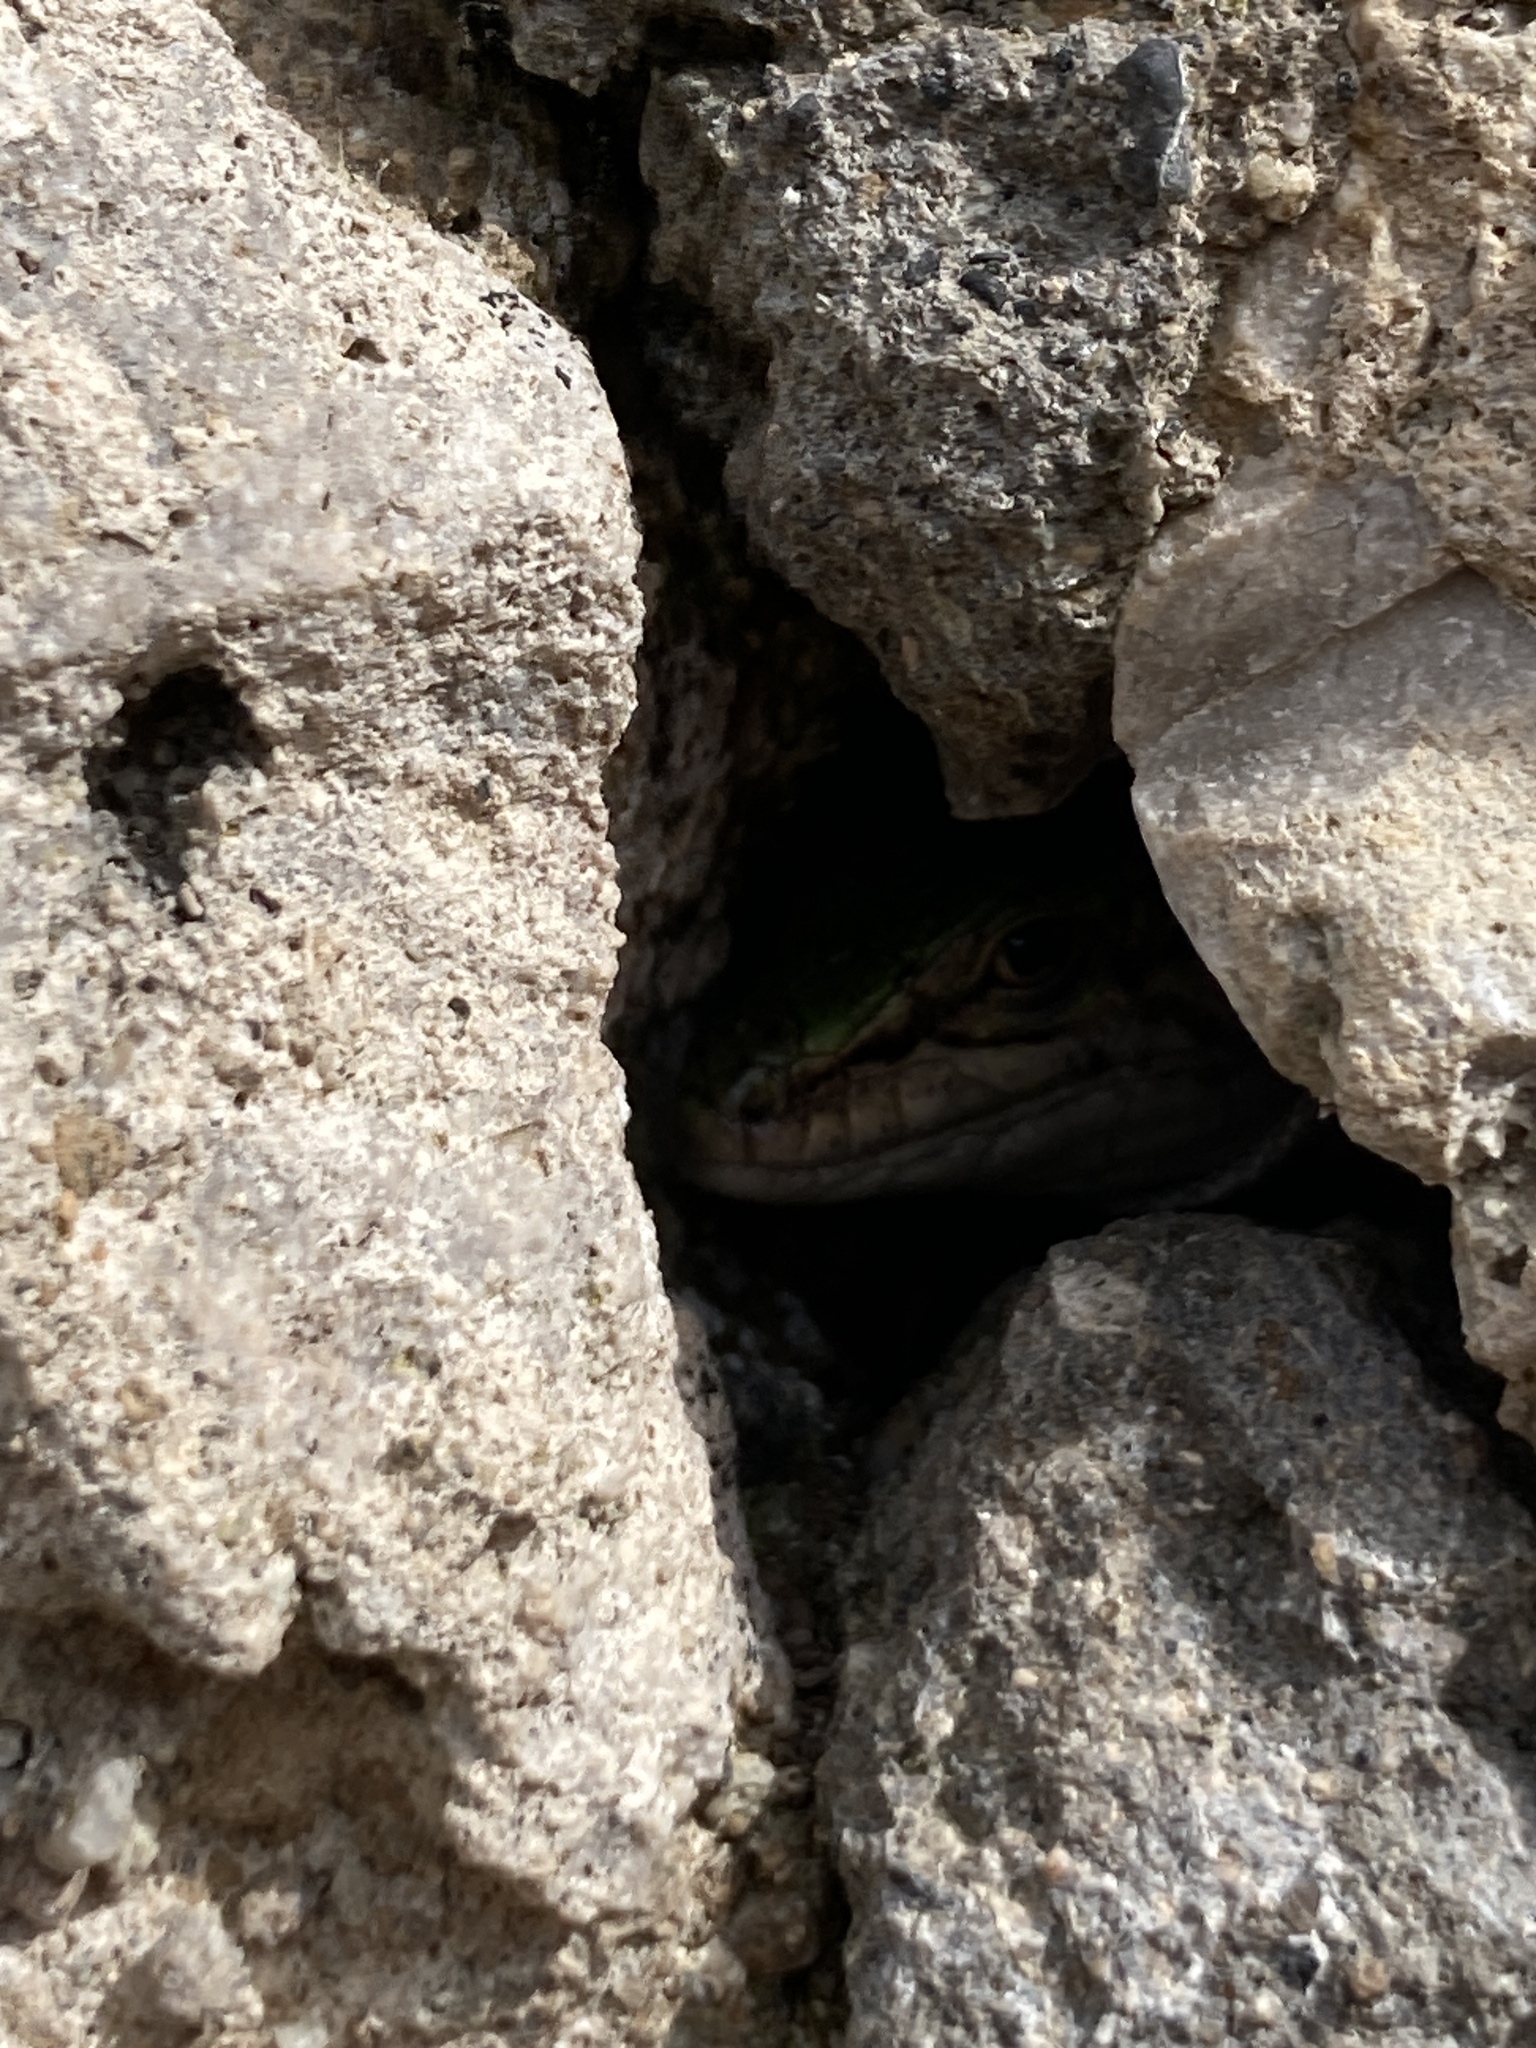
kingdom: Animalia
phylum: Chordata
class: Squamata
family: Lacertidae
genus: Podarcis
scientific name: Podarcis siculus
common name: Italian wall lizard
